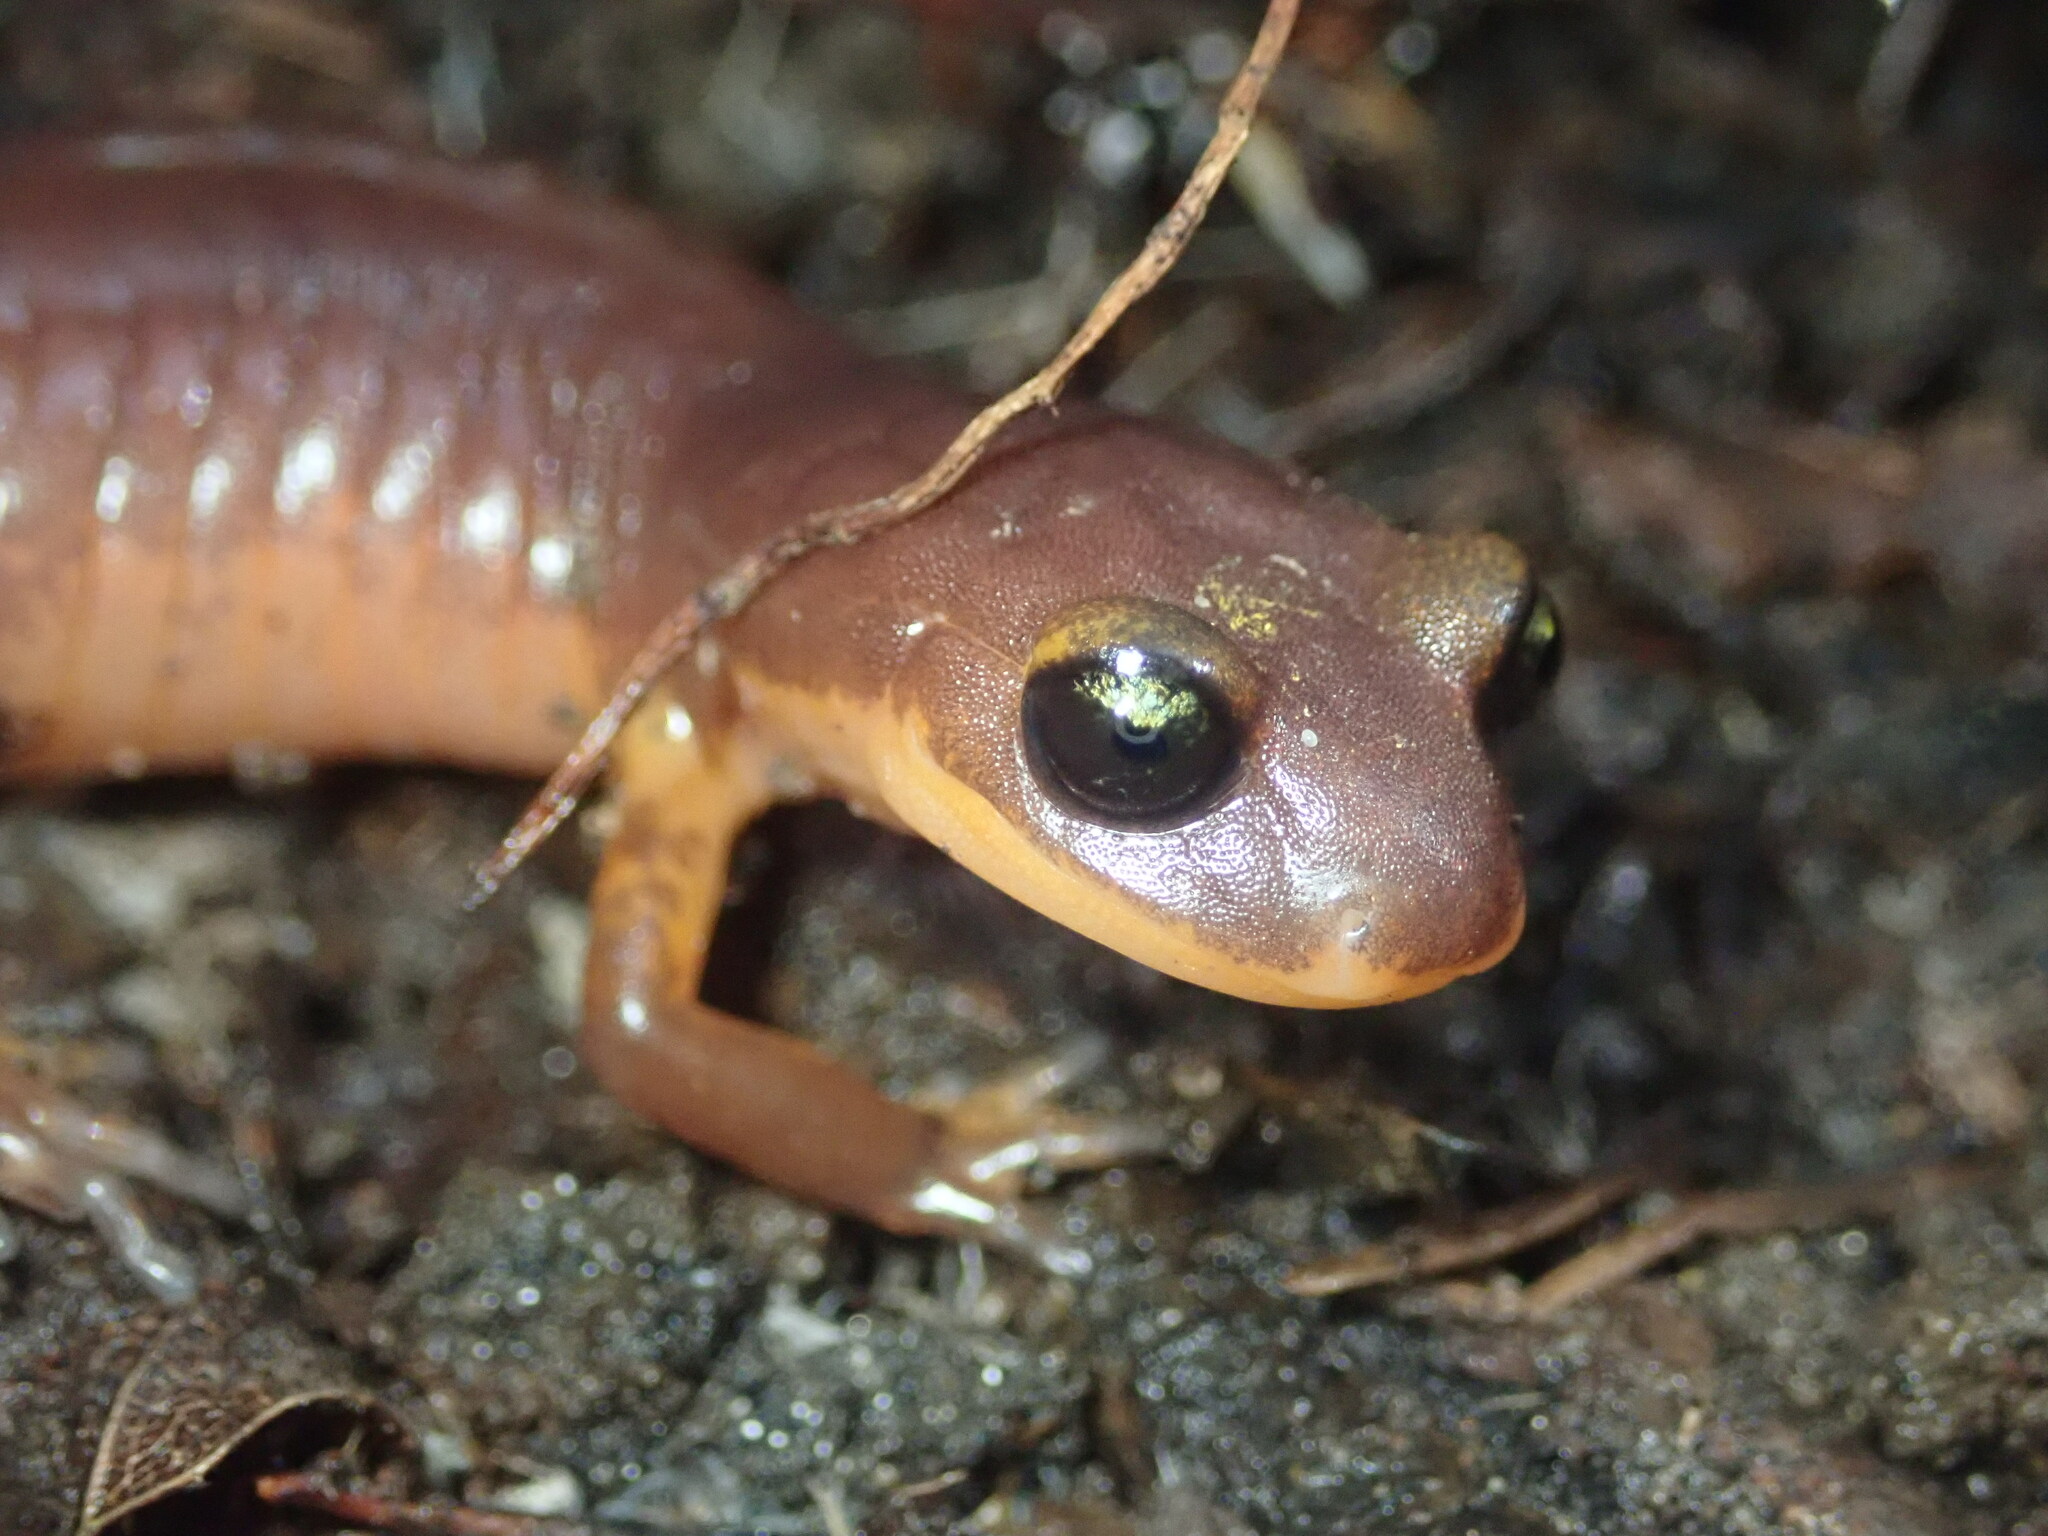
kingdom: Animalia
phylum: Chordata
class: Amphibia
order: Caudata
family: Plethodontidae
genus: Ensatina
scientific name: Ensatina eschscholtzii
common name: Ensatina
